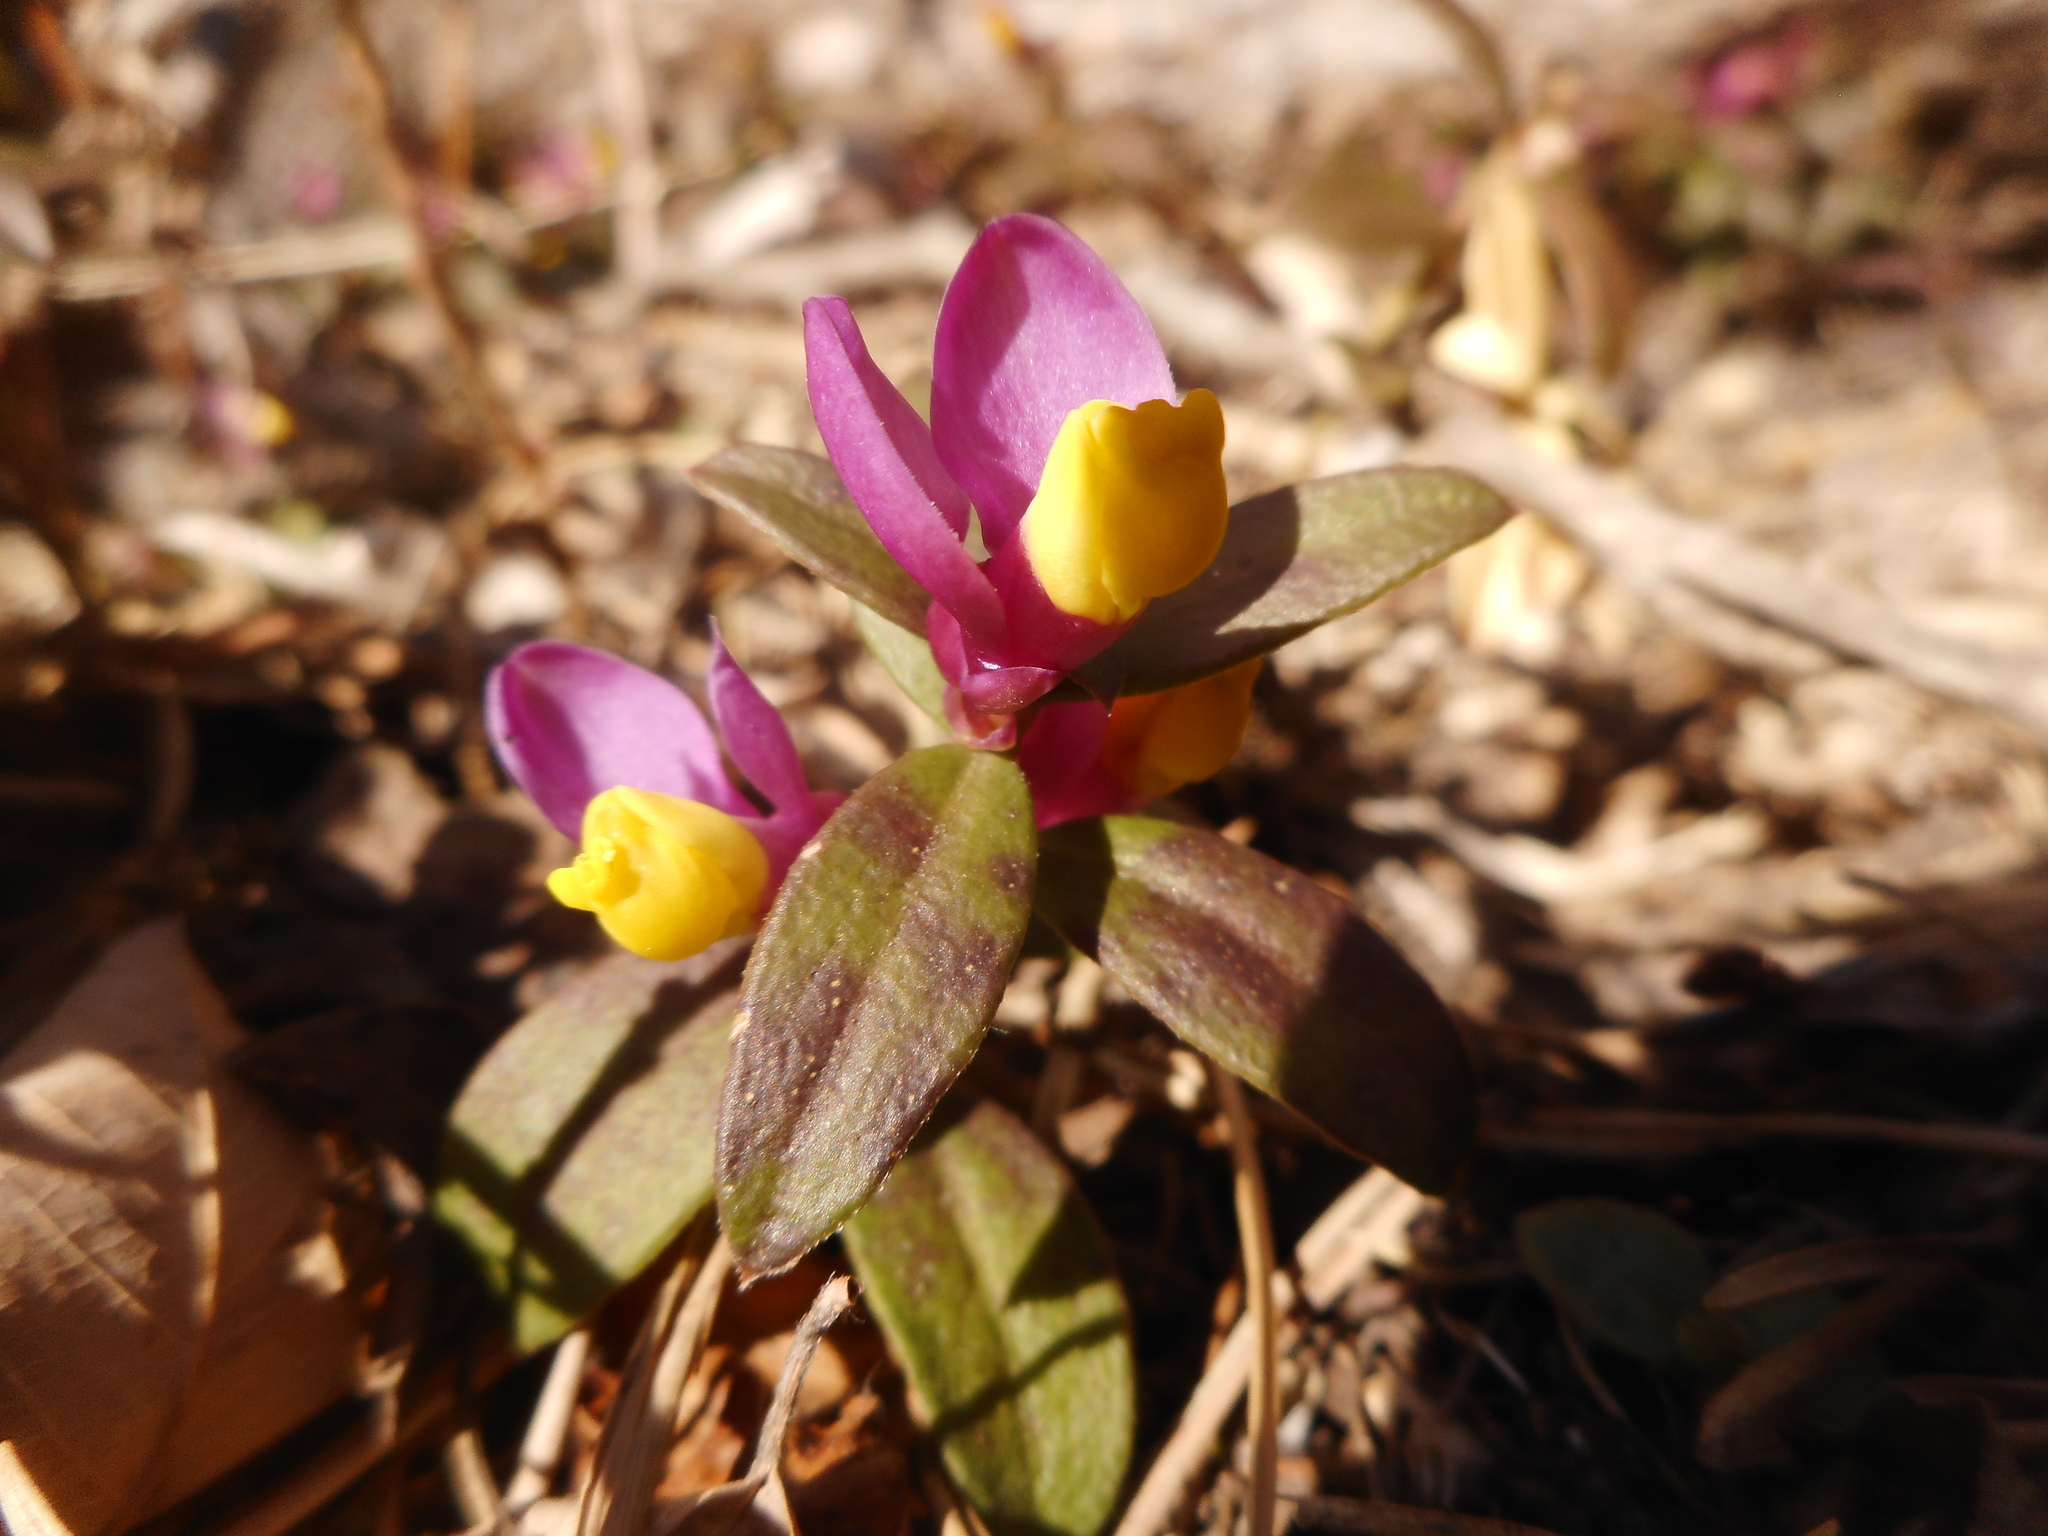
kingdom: Plantae
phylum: Tracheophyta
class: Magnoliopsida
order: Fabales
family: Polygalaceae
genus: Polygaloides
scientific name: Polygaloides chamaebuxus
